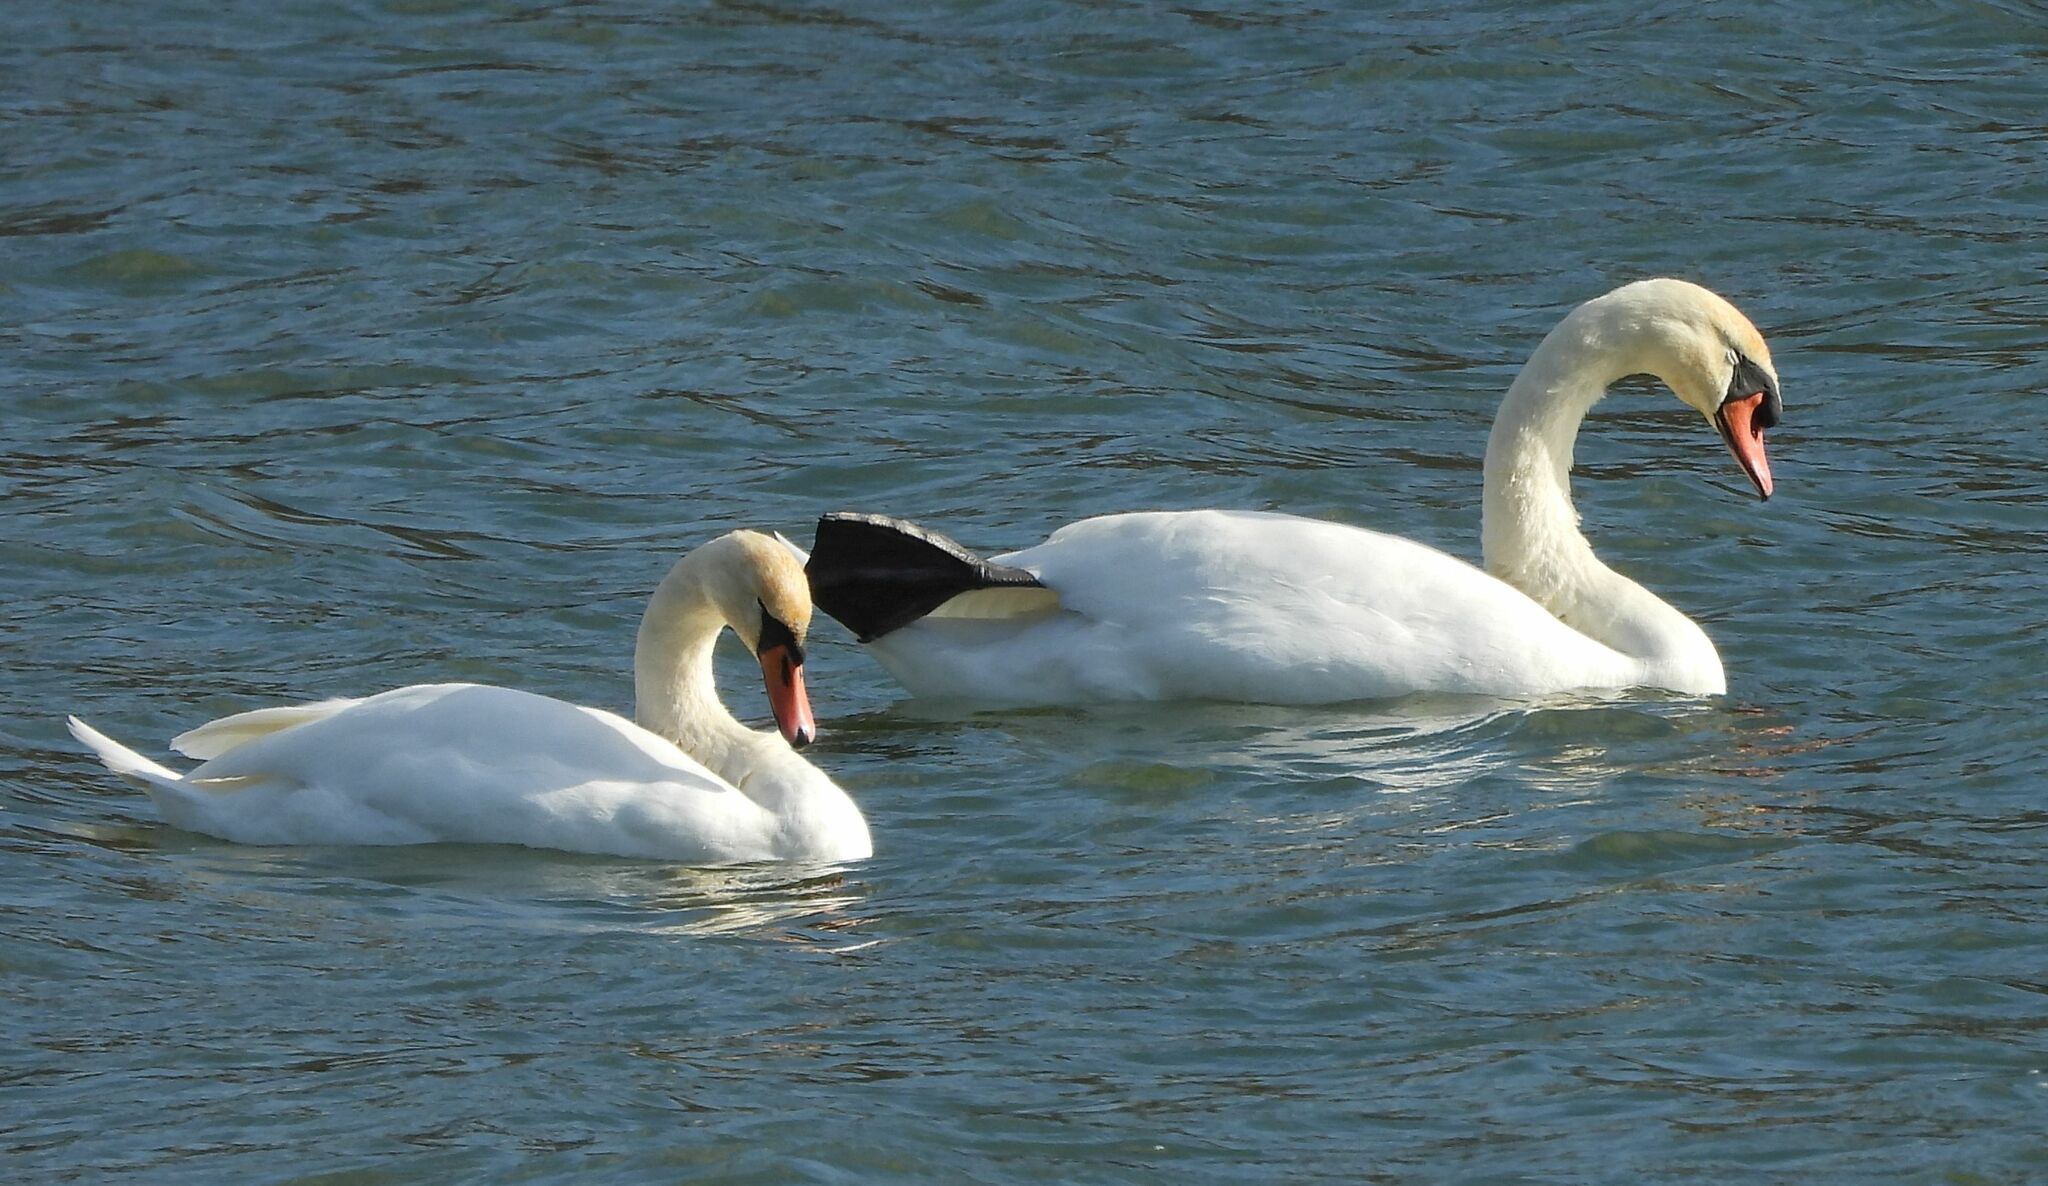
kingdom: Animalia
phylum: Chordata
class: Aves
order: Anseriformes
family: Anatidae
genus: Cygnus
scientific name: Cygnus olor
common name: Mute swan
